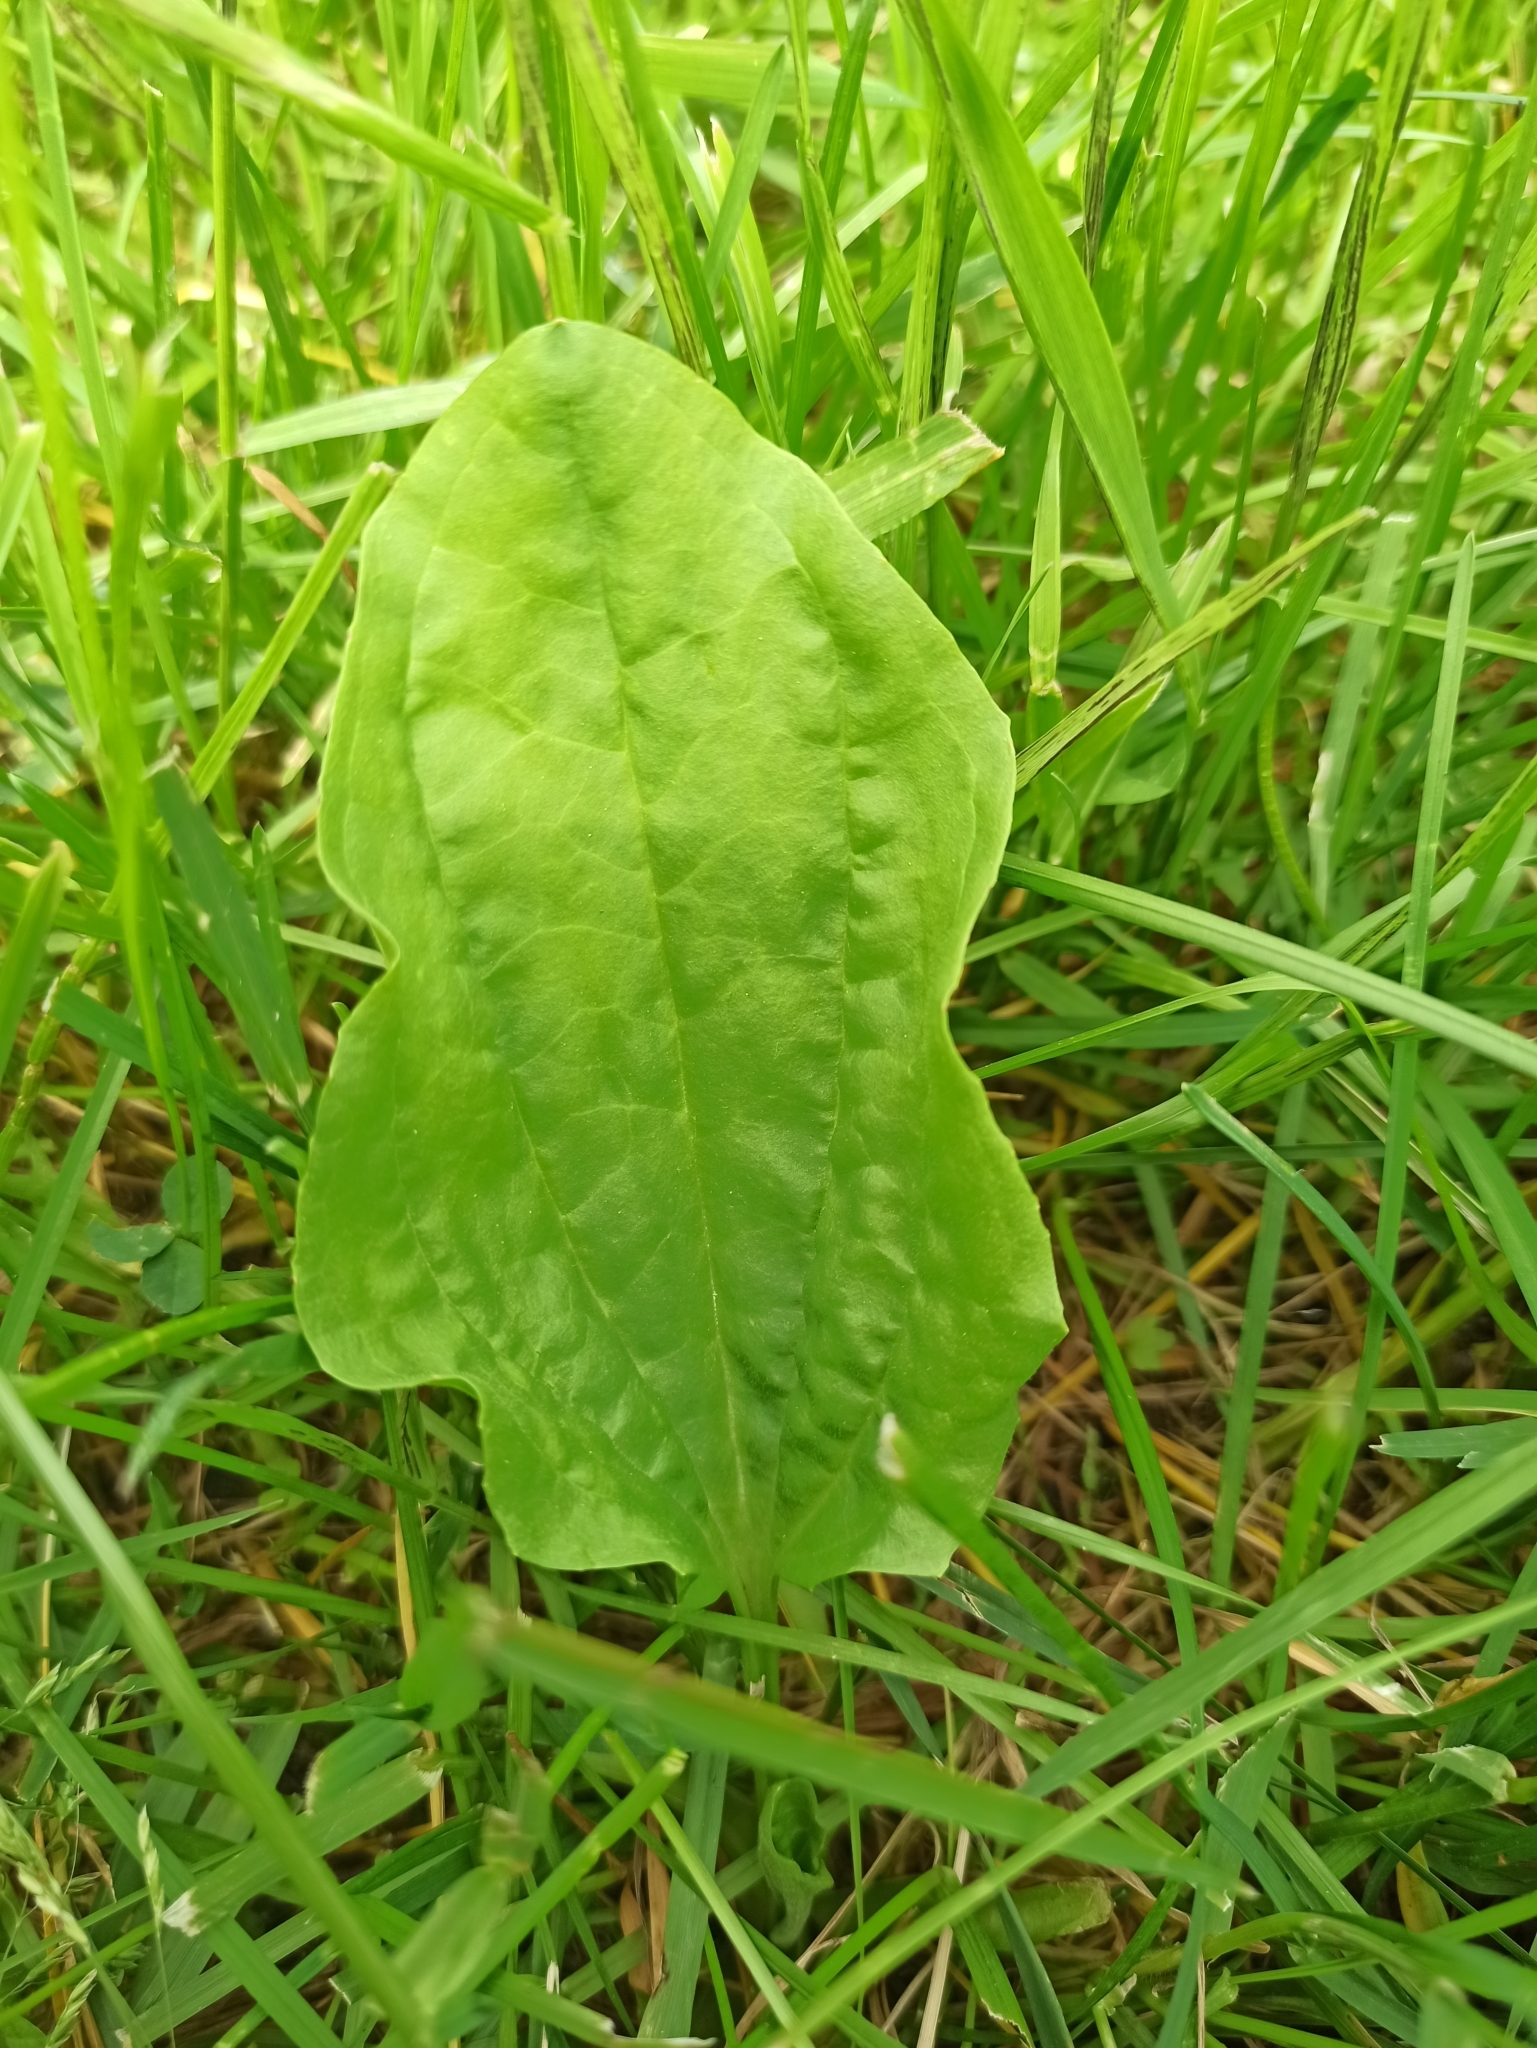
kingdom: Plantae
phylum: Tracheophyta
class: Magnoliopsida
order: Lamiales
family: Plantaginaceae
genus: Plantago
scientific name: Plantago major
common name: Common plantain
